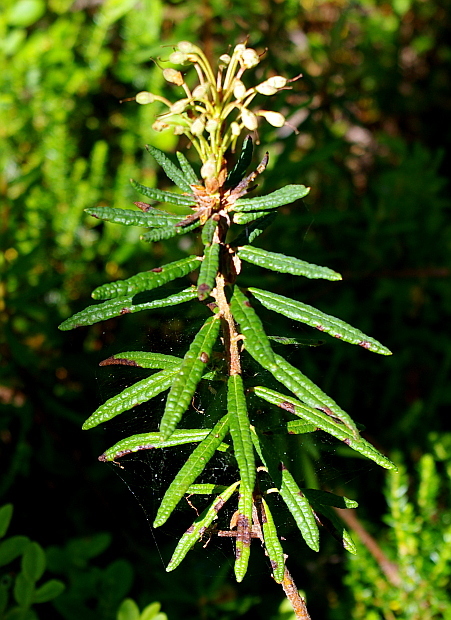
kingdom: Plantae
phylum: Tracheophyta
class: Magnoliopsida
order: Ericales
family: Ericaceae
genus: Rhododendron
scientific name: Rhododendron tomentosum
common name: Marsh labrador tea
